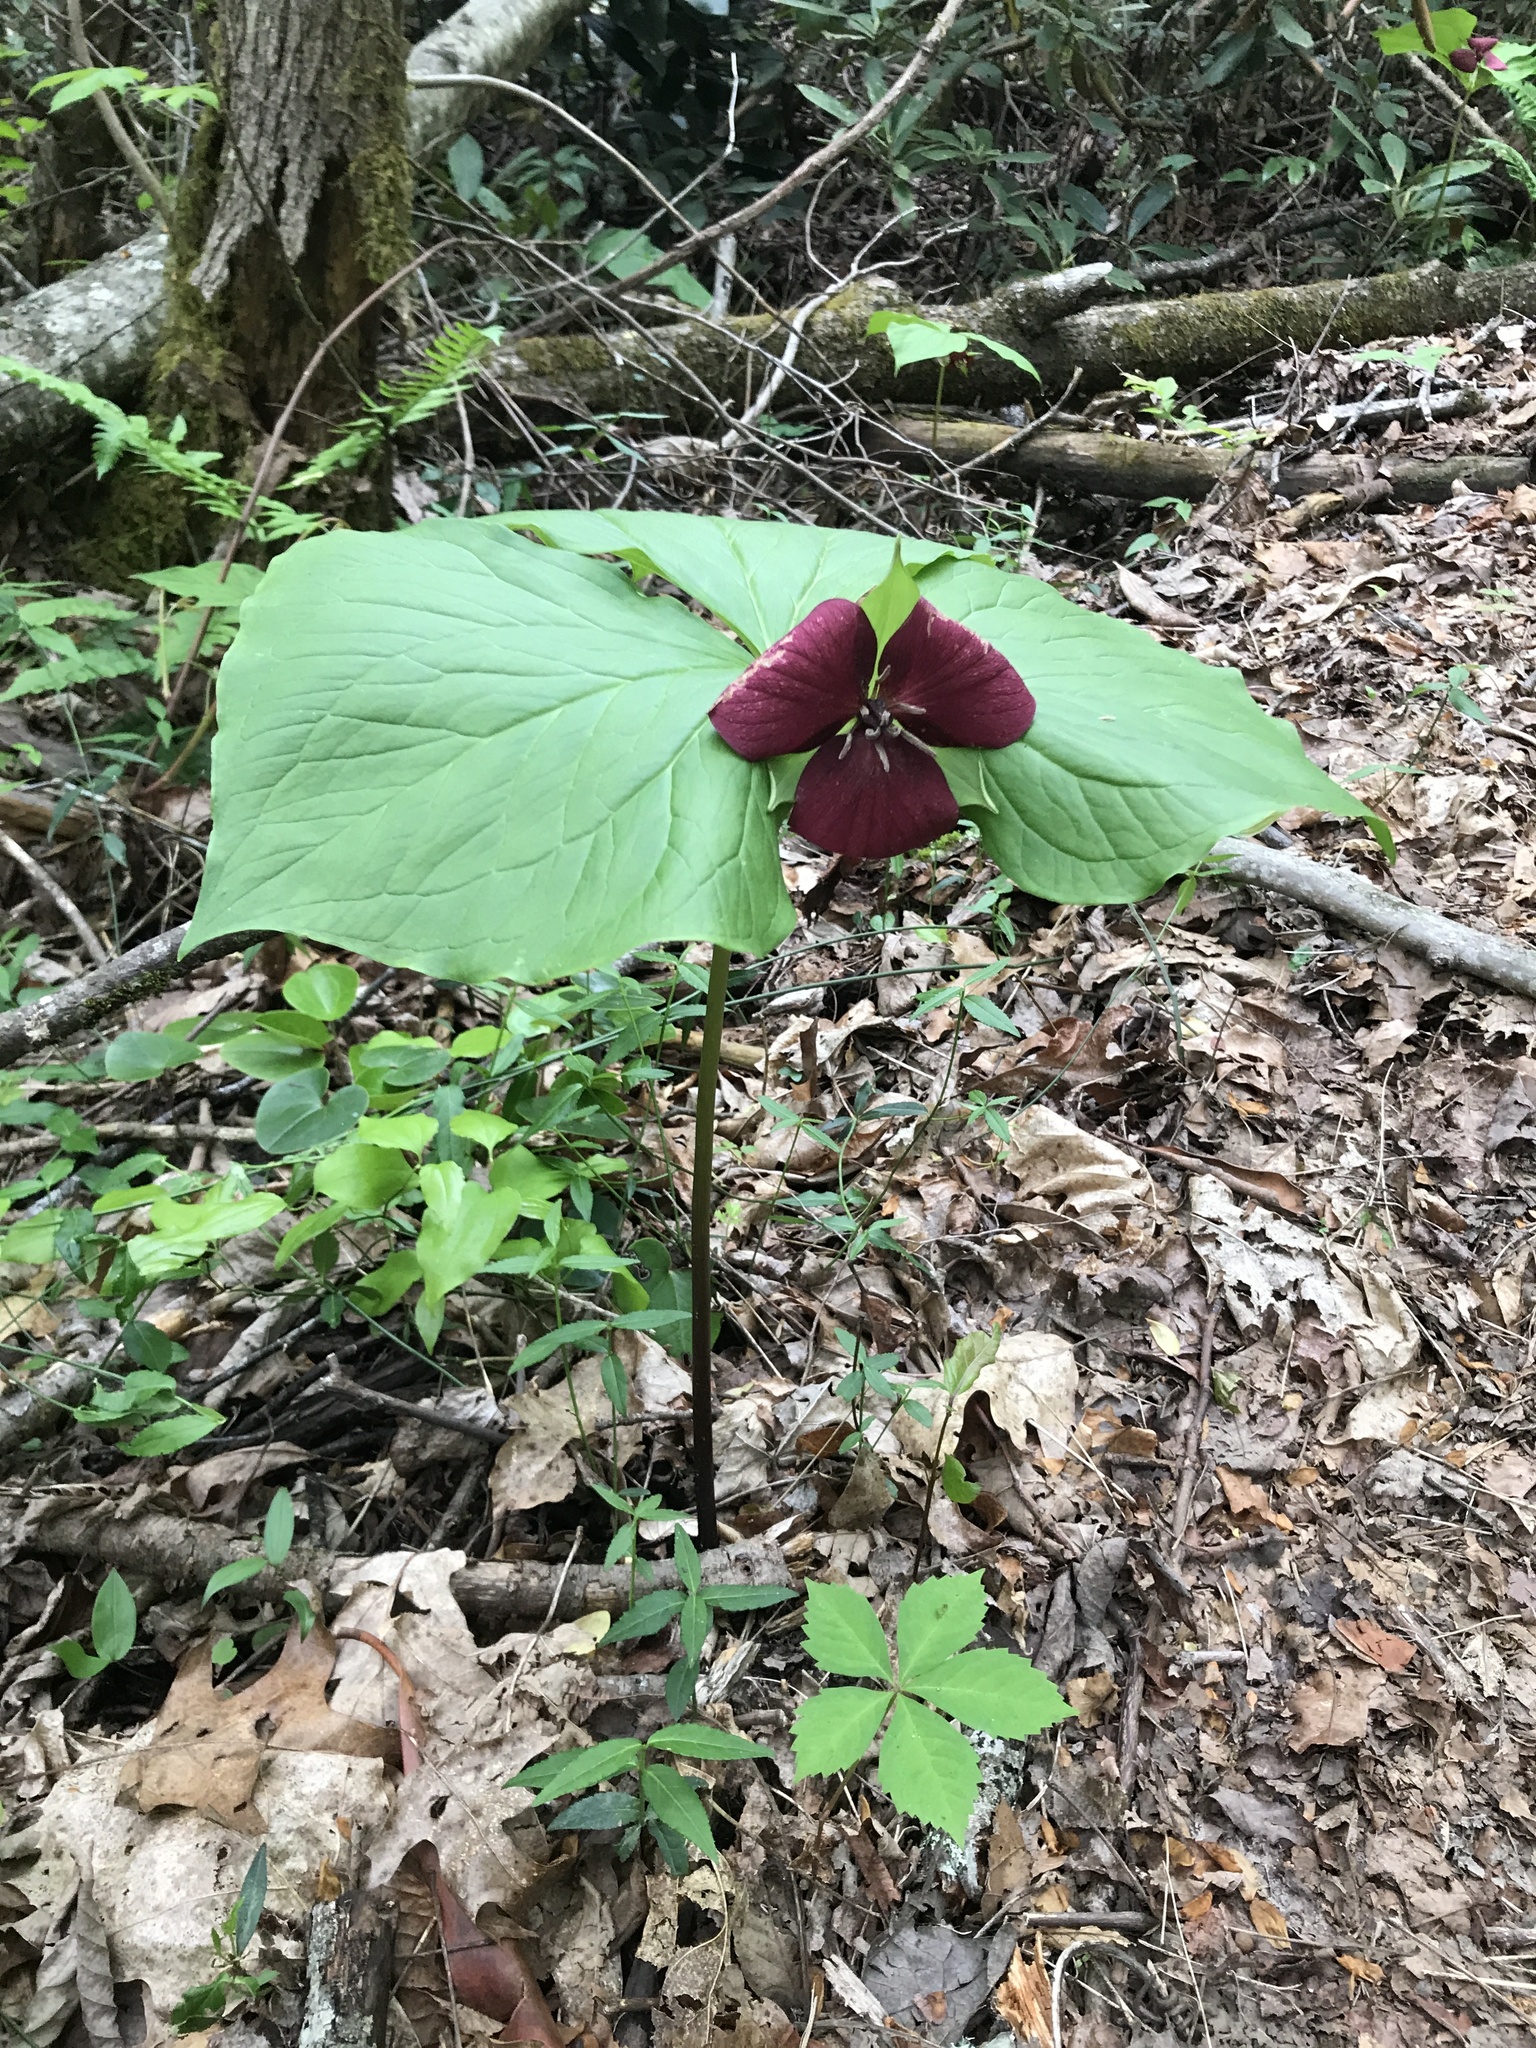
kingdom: Plantae
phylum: Tracheophyta
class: Liliopsida
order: Liliales
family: Melanthiaceae
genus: Trillium
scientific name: Trillium vaseyi
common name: Sweet trillium
